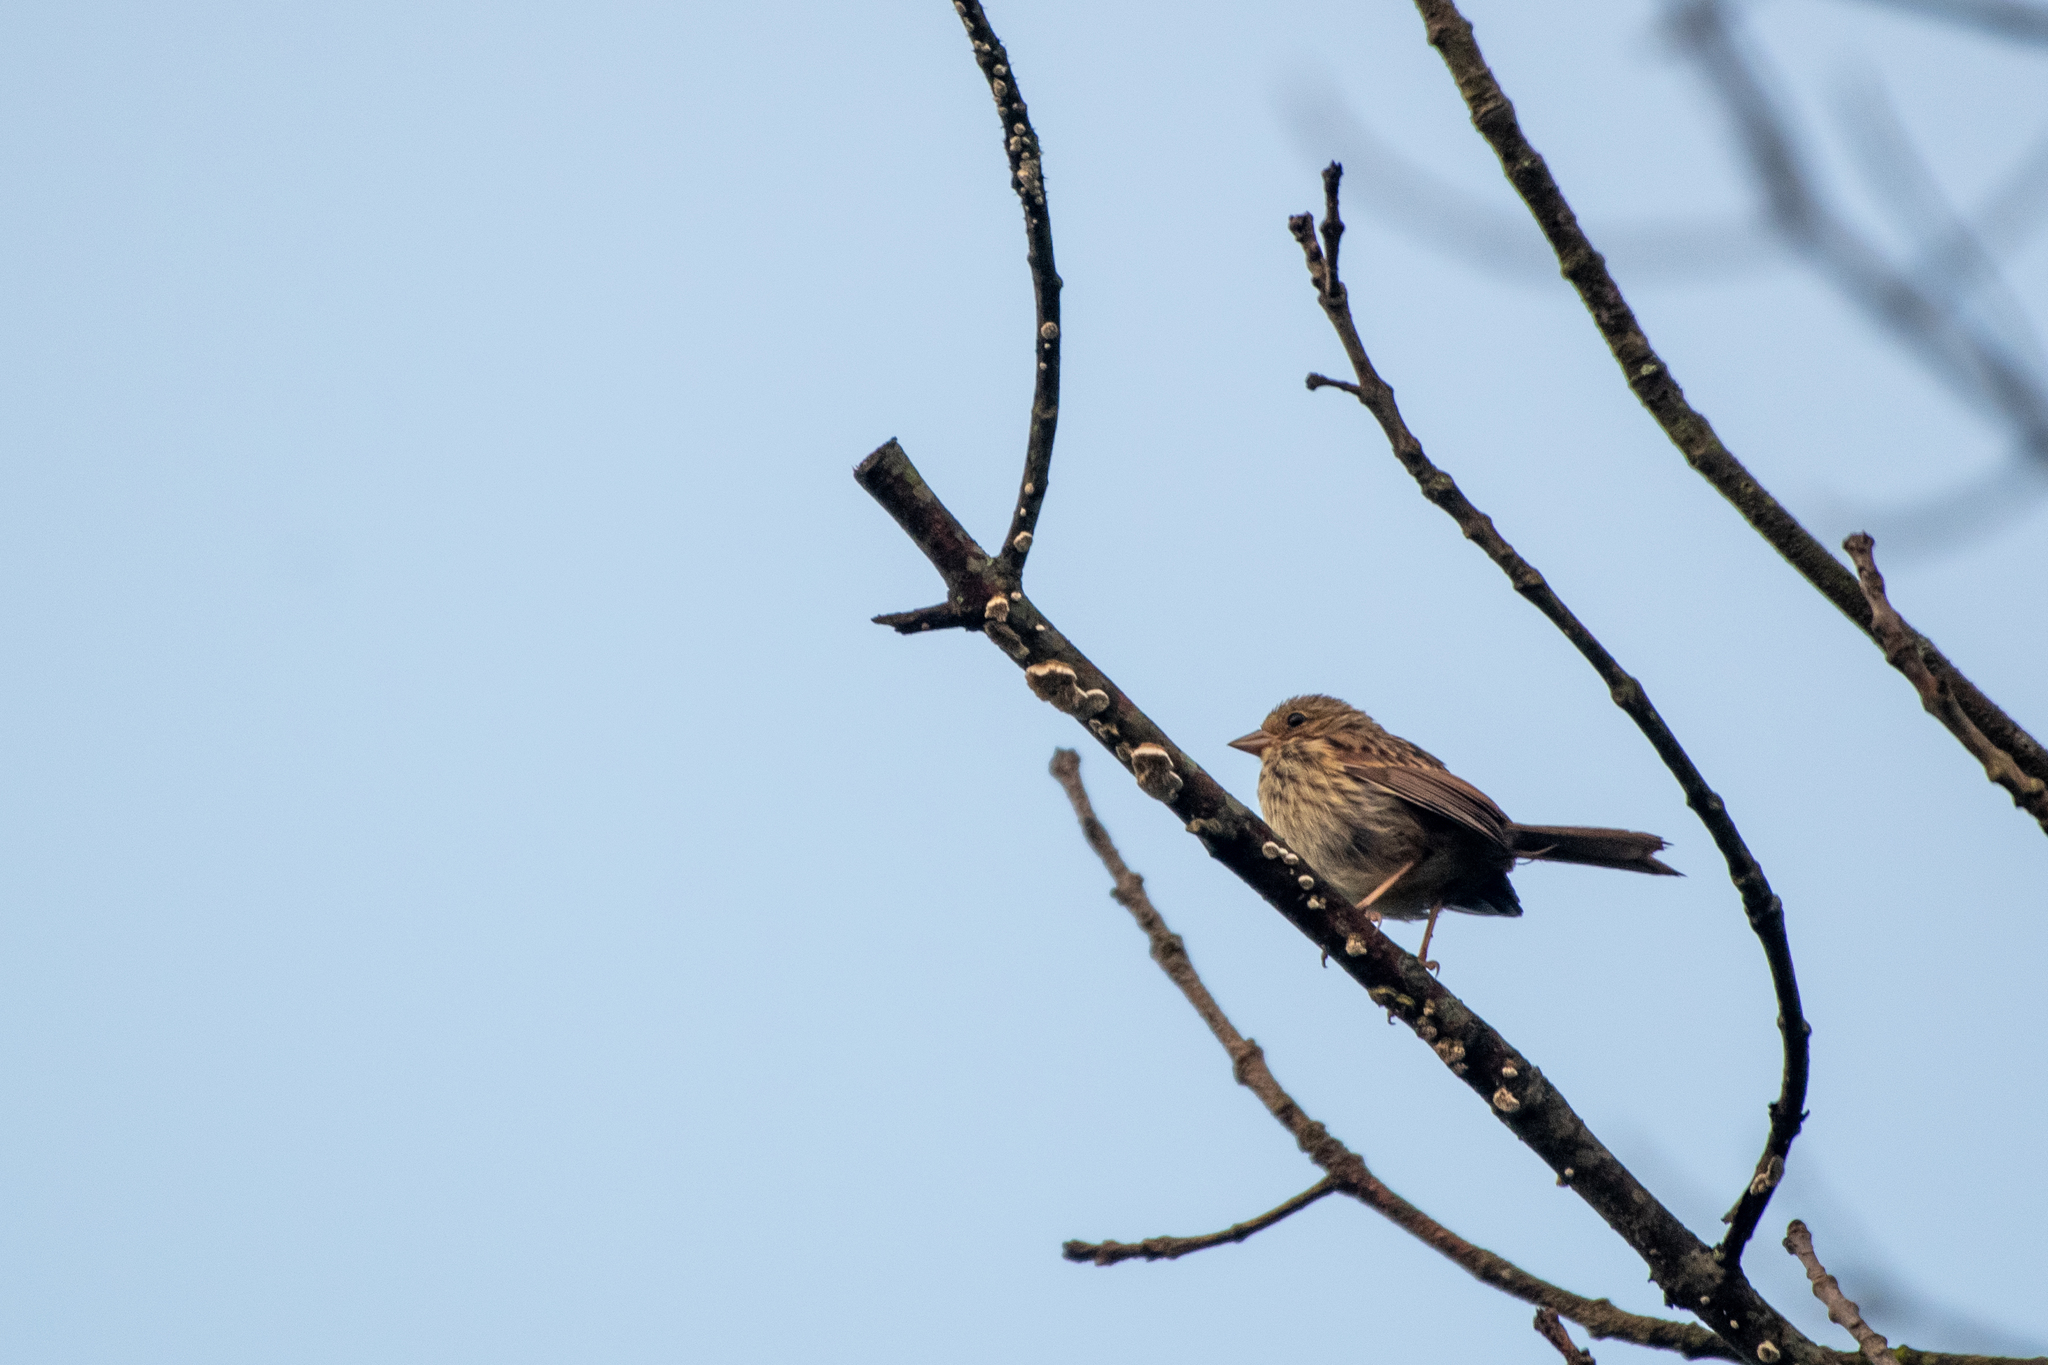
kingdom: Animalia
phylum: Chordata
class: Aves
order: Passeriformes
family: Passerellidae
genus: Melospiza
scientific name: Melospiza melodia
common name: Song sparrow
